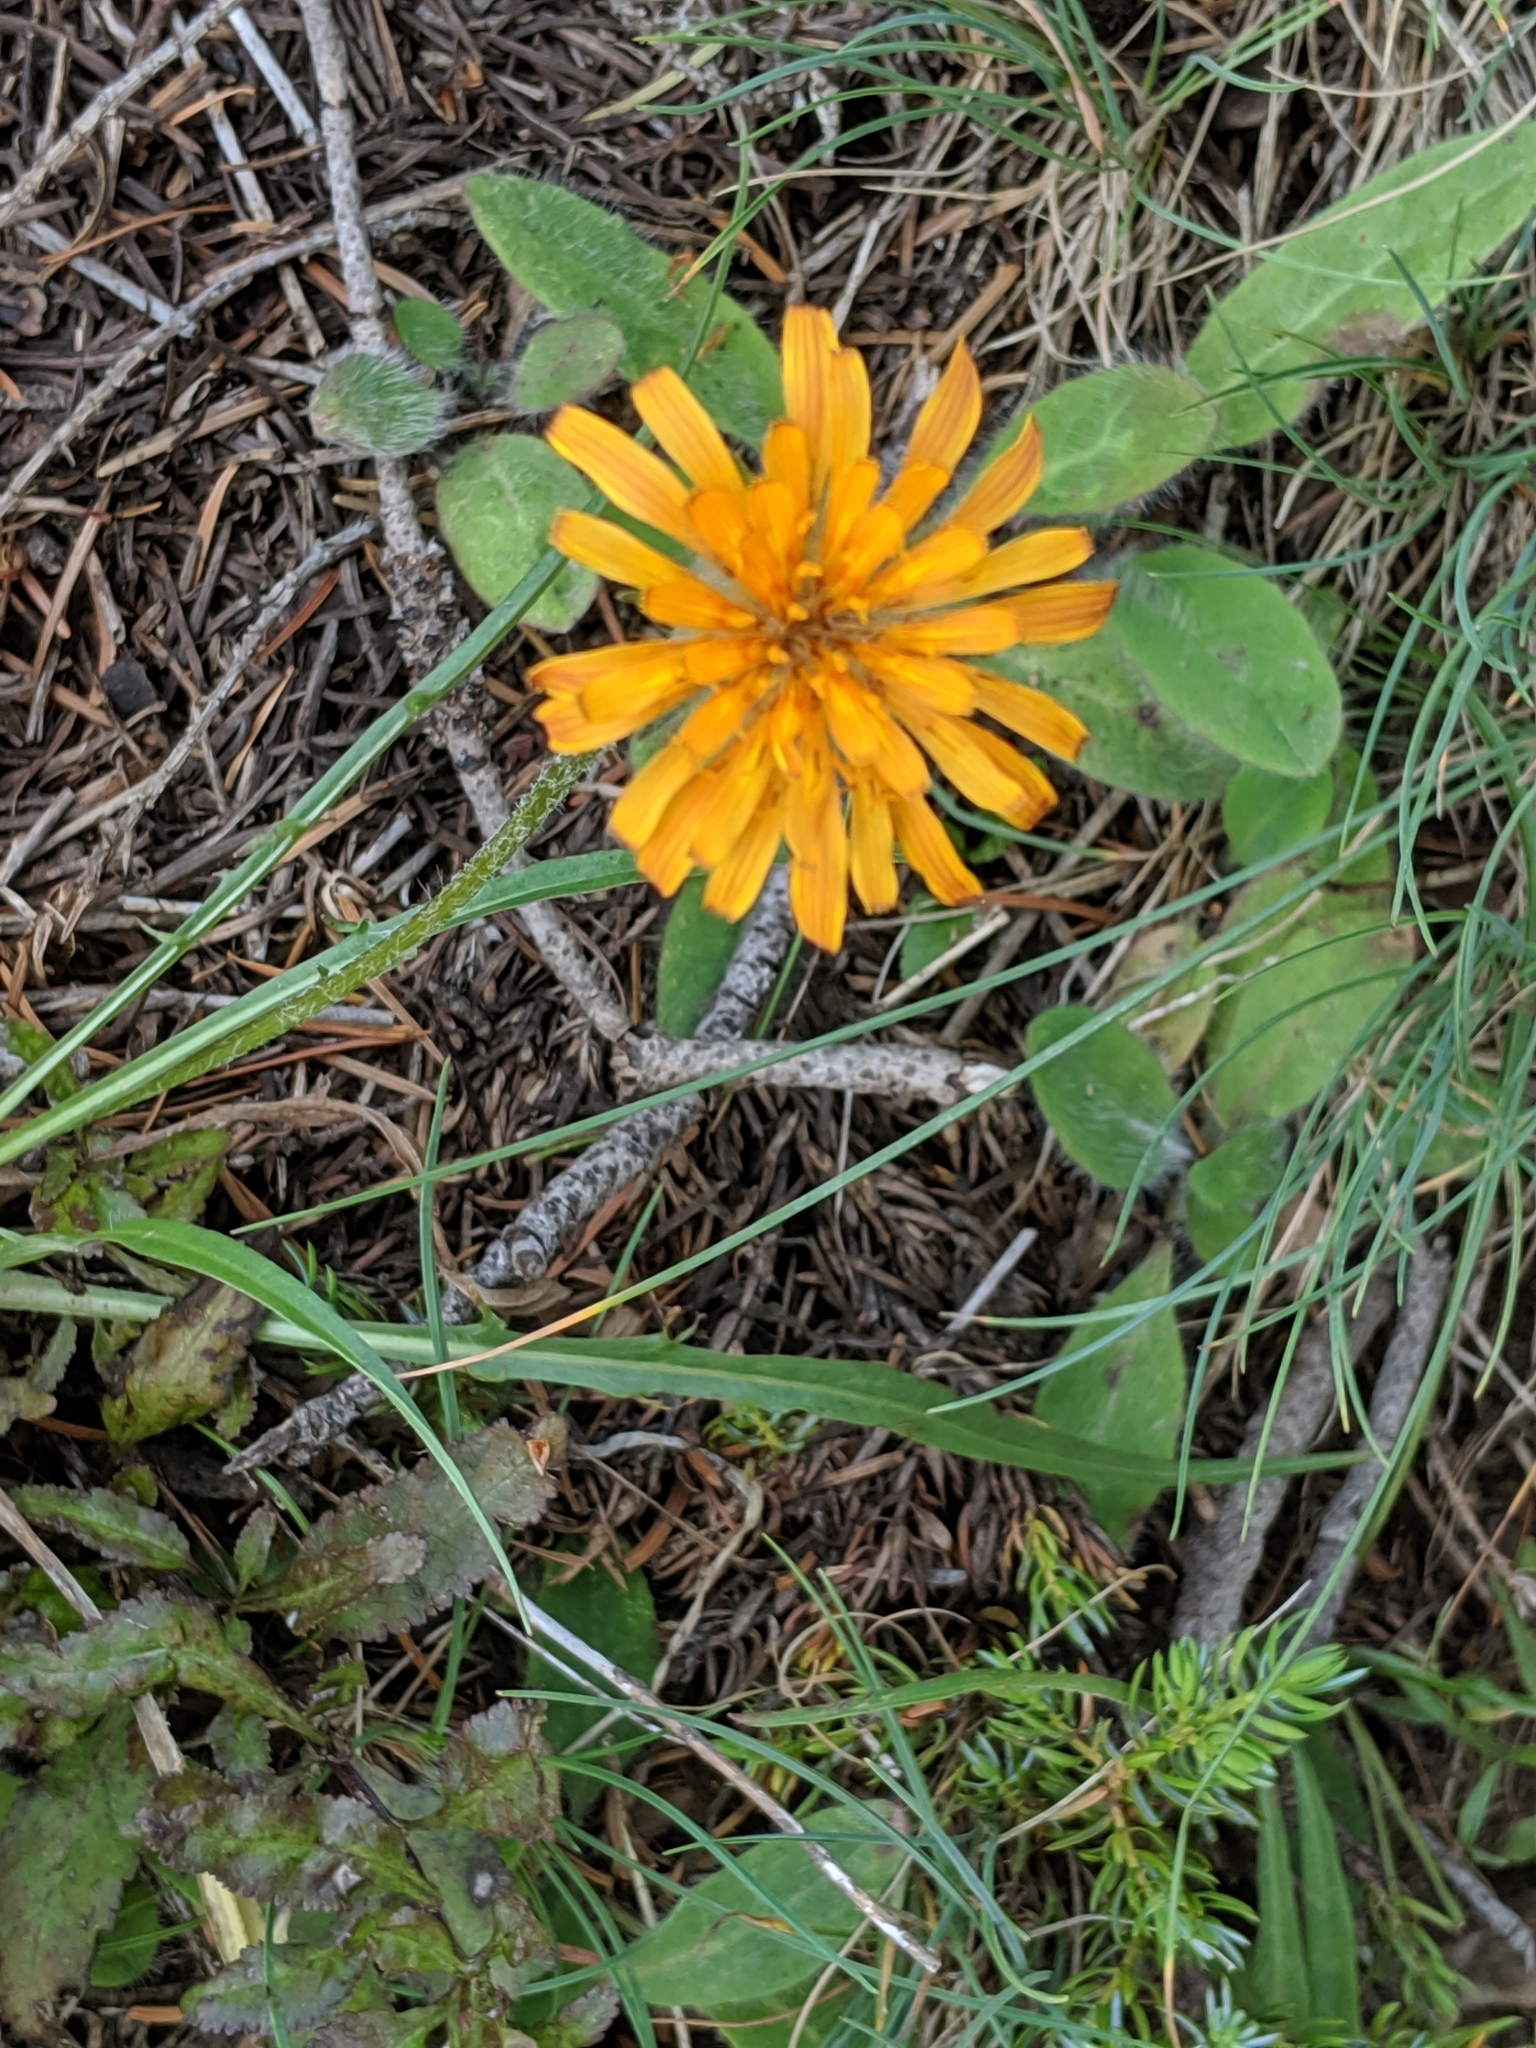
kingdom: Plantae
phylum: Tracheophyta
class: Magnoliopsida
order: Asterales
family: Asteraceae
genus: Agoseris
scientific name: Agoseris aurantiaca
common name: Mountain agoseris
